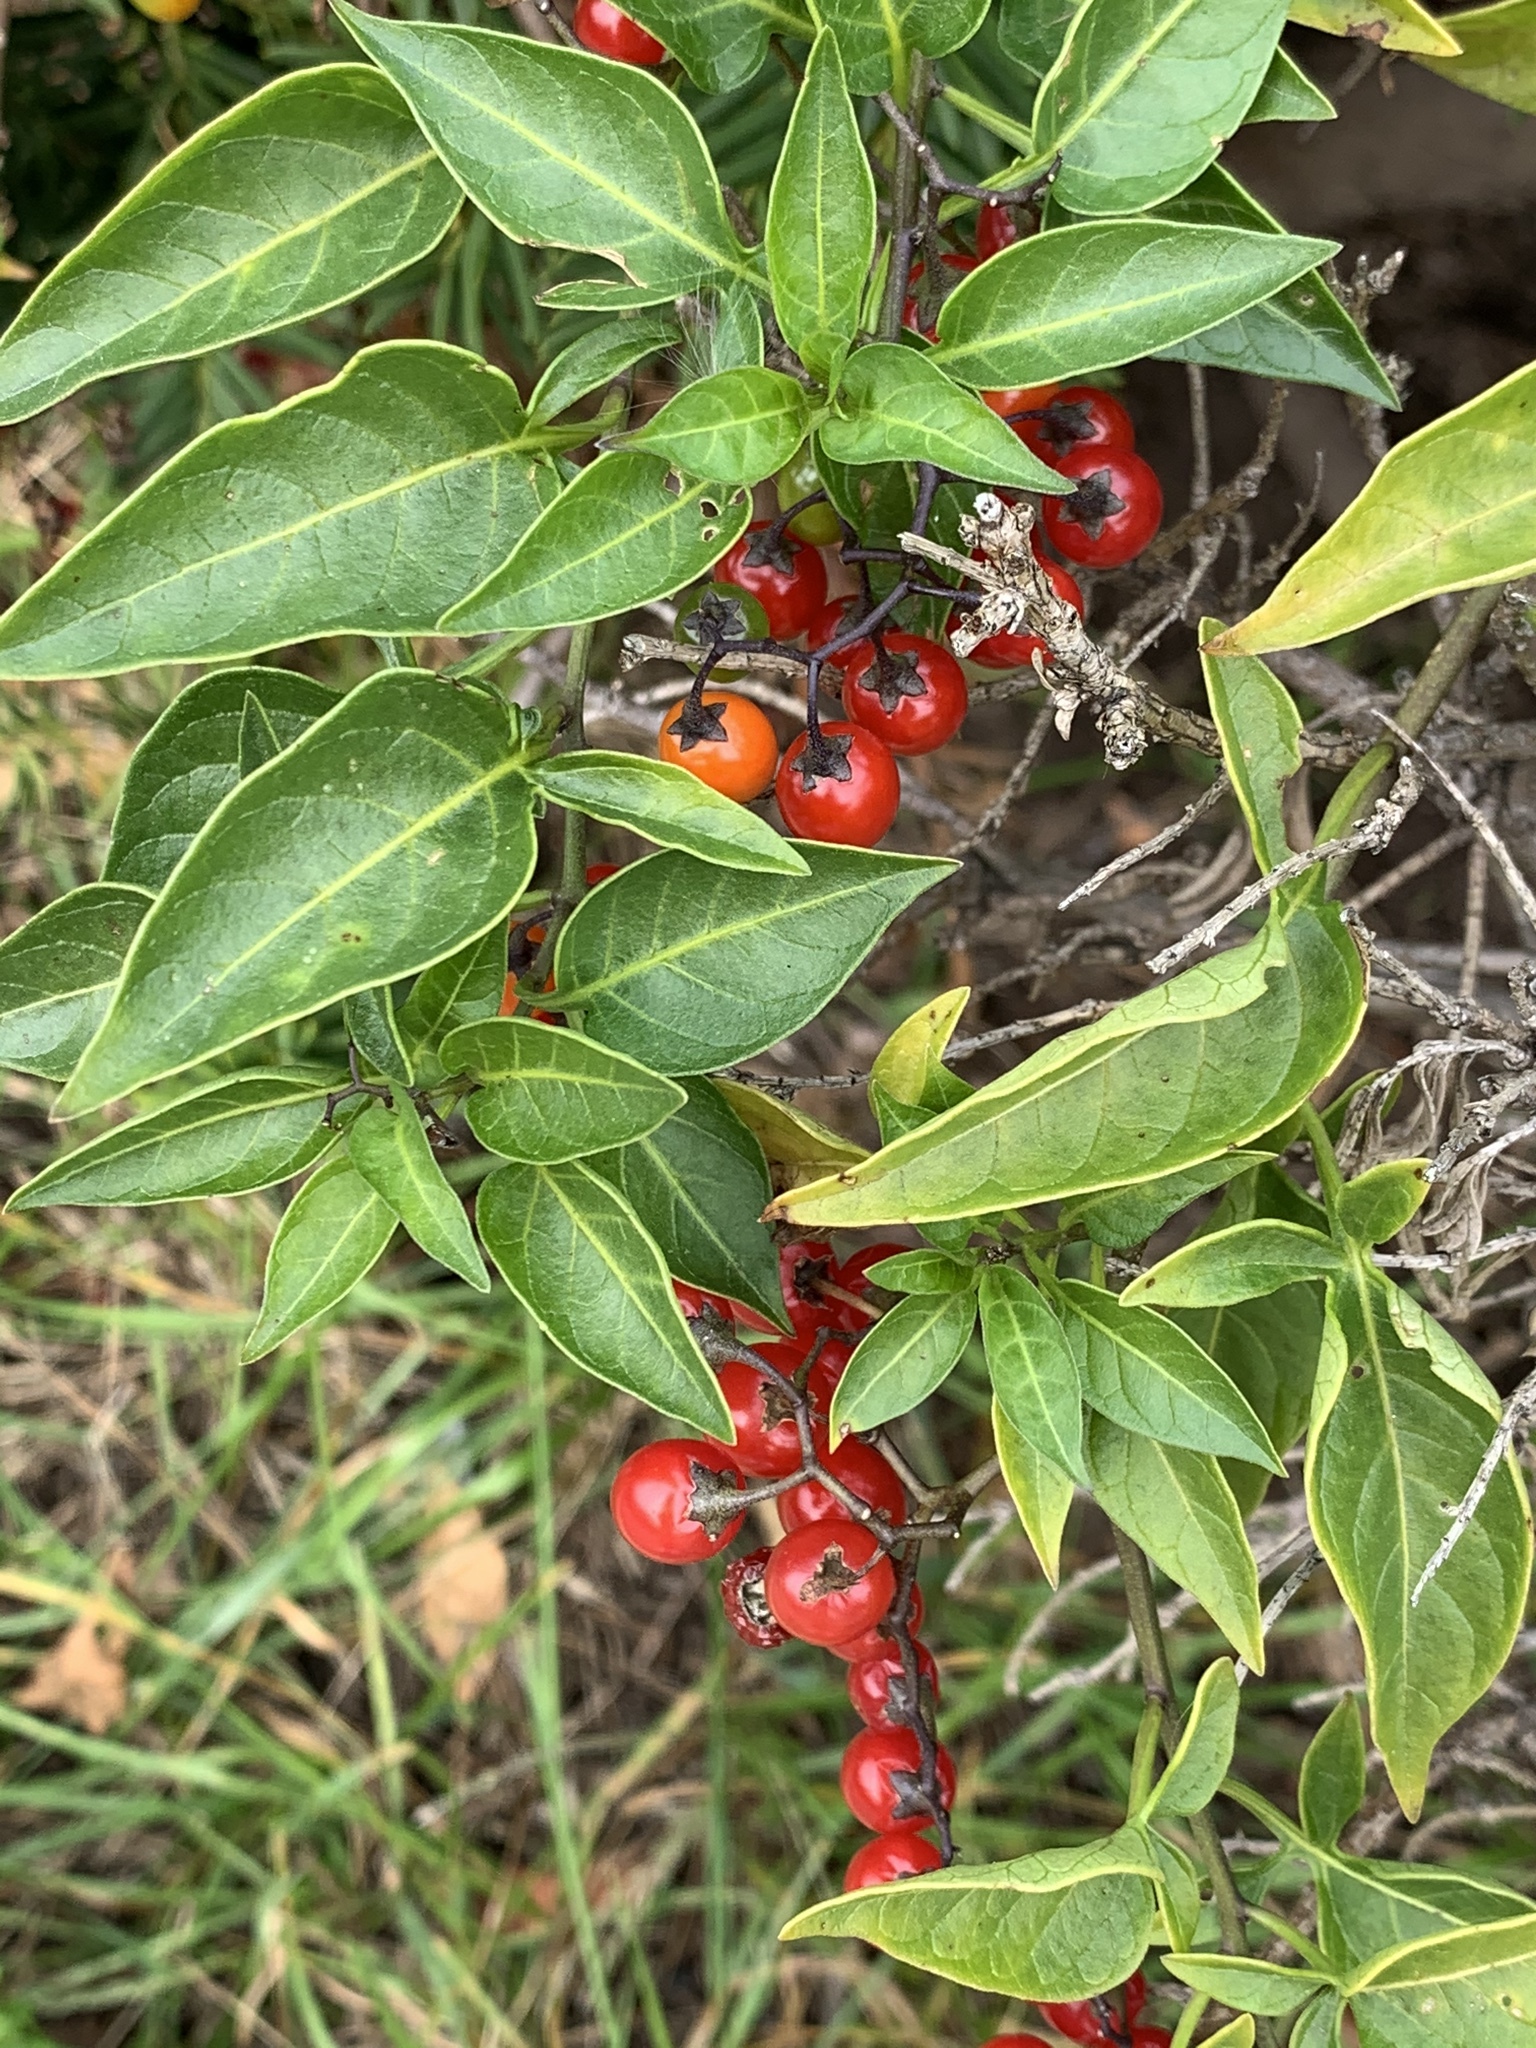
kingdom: Plantae
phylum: Tracheophyta
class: Magnoliopsida
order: Solanales
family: Solanaceae
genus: Solanum
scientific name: Solanum dulcamara
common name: Climbing nightshade
